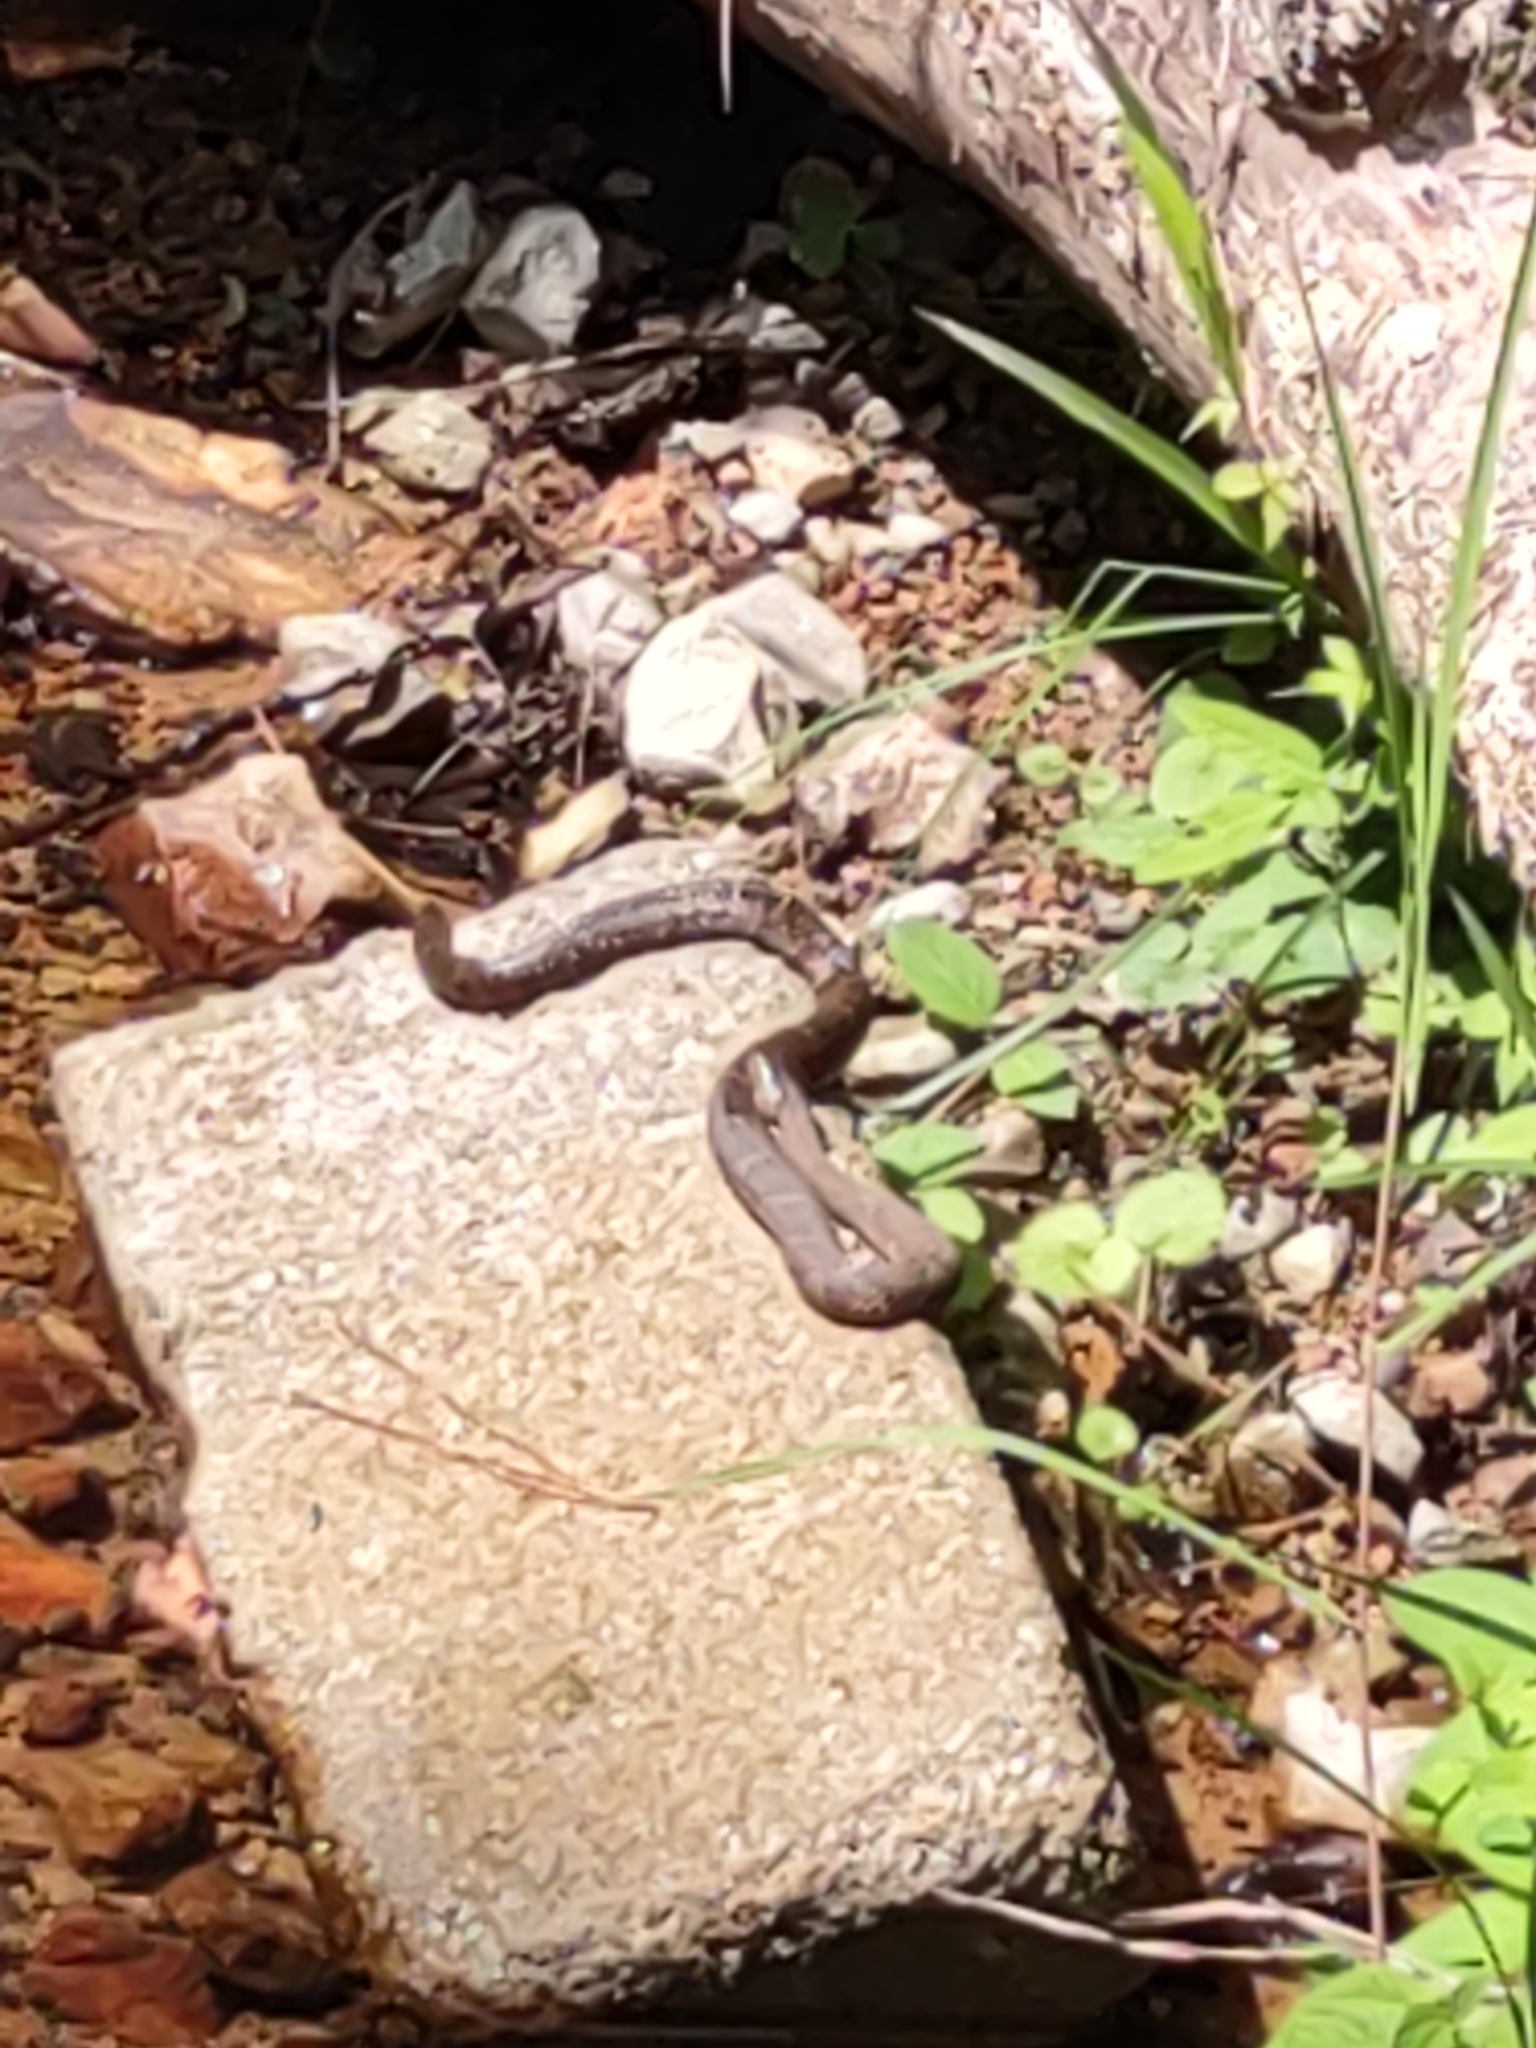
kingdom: Animalia
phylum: Chordata
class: Squamata
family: Colubridae
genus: Nerodia
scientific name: Nerodia sipedon
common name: Northern water snake
